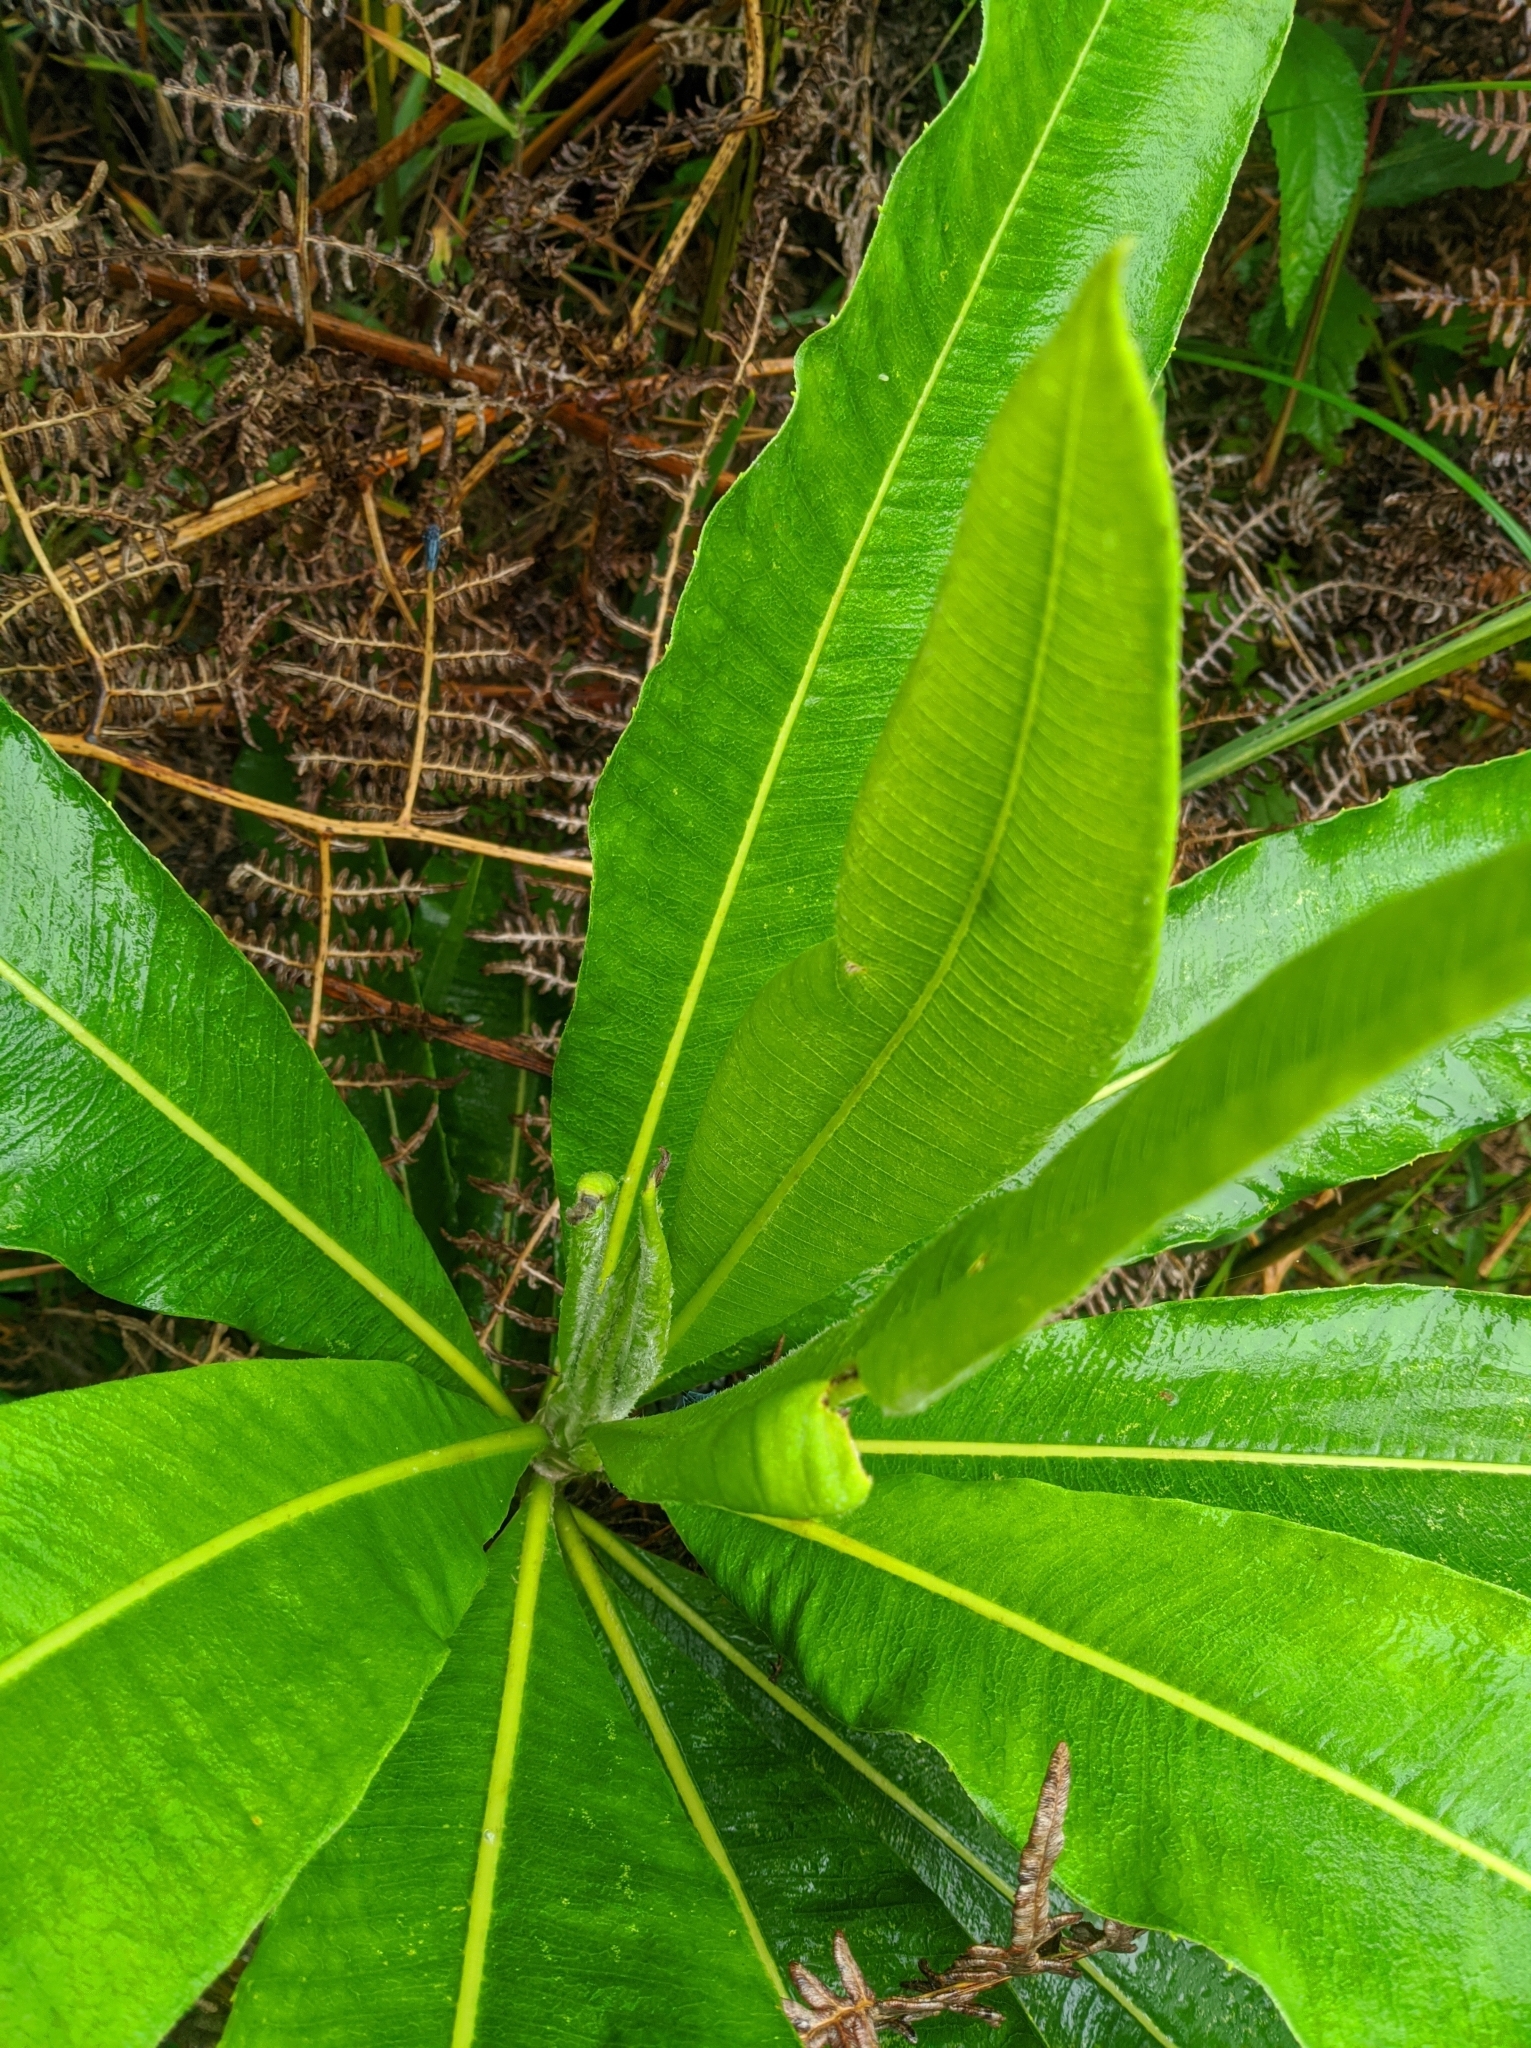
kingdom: Plantae
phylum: Tracheophyta
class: Magnoliopsida
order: Asterales
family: Asteraceae
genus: Espeletia
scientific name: Espeletia neriifolia
